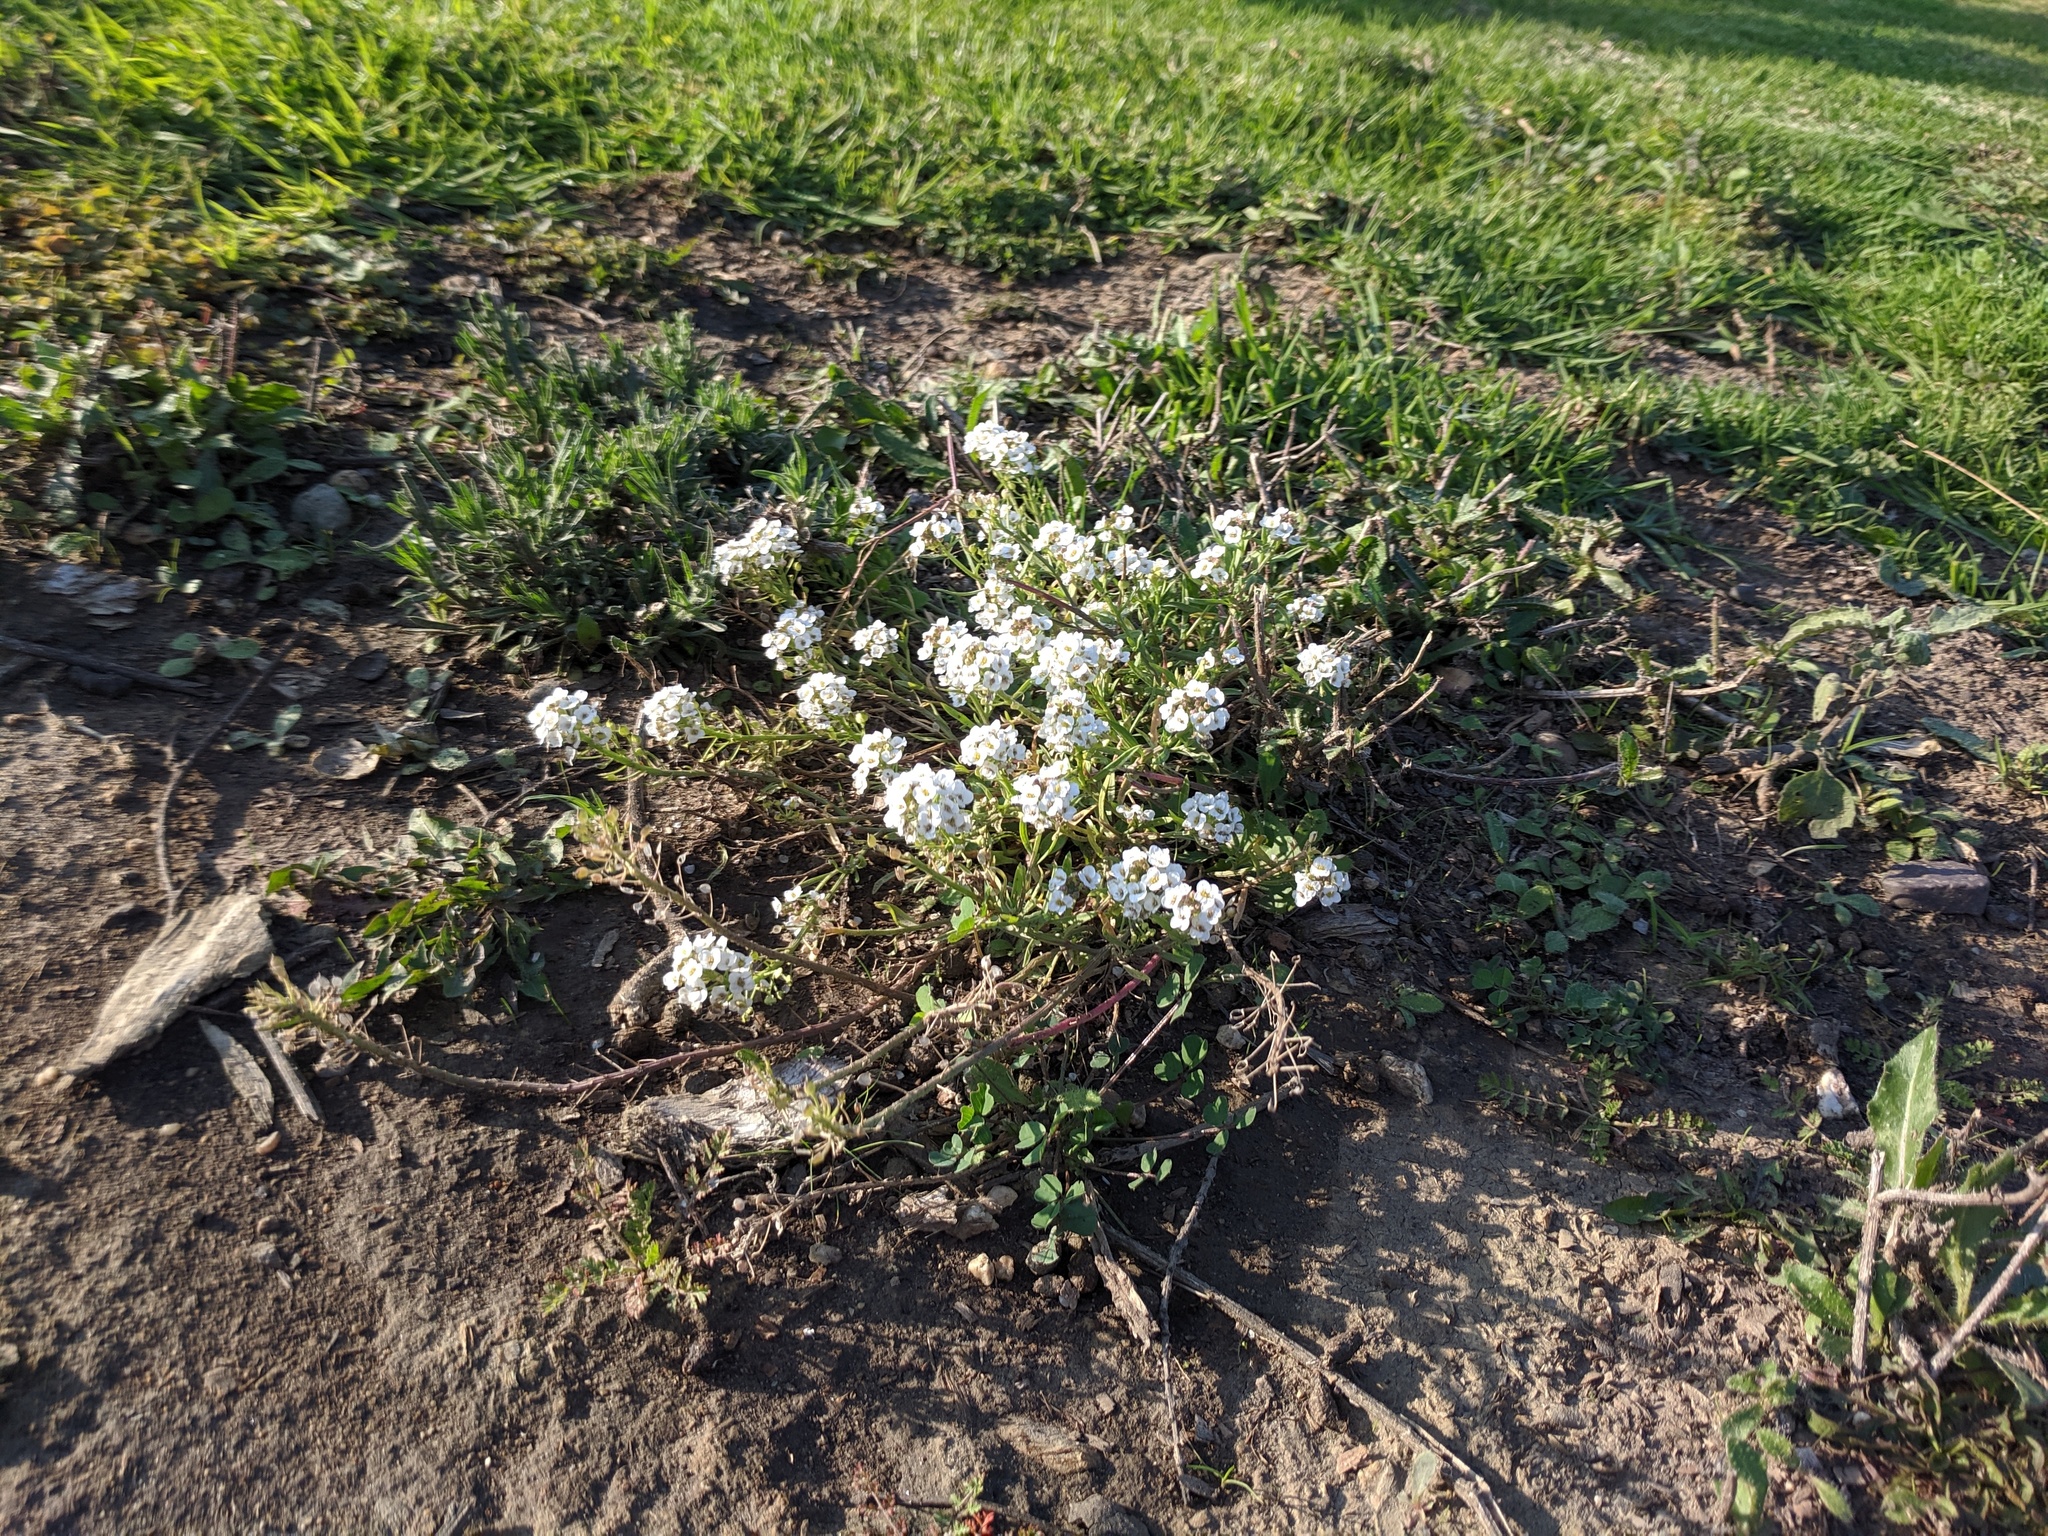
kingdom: Plantae
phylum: Tracheophyta
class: Magnoliopsida
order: Brassicales
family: Brassicaceae
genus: Lobularia
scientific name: Lobularia maritima
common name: Sweet alison
